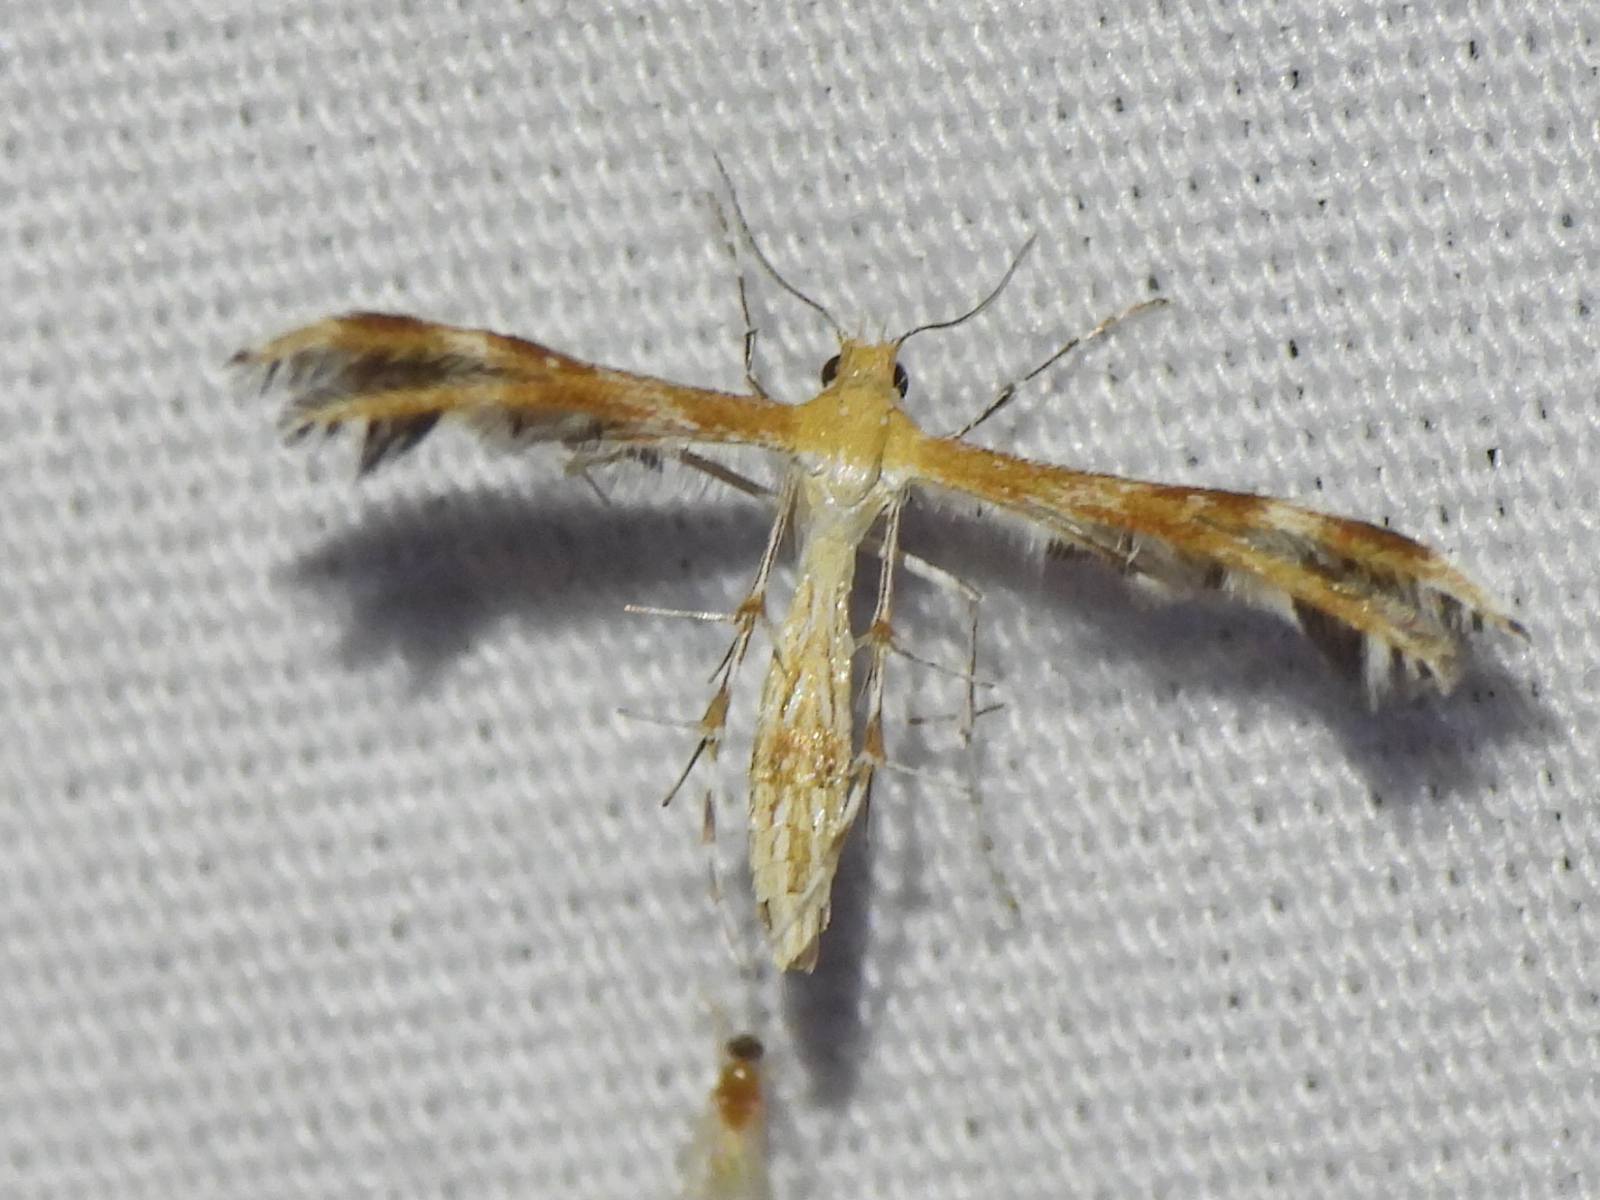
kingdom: Animalia
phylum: Arthropoda
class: Insecta
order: Lepidoptera
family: Pterophoridae
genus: Dejongia
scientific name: Dejongia californicus
